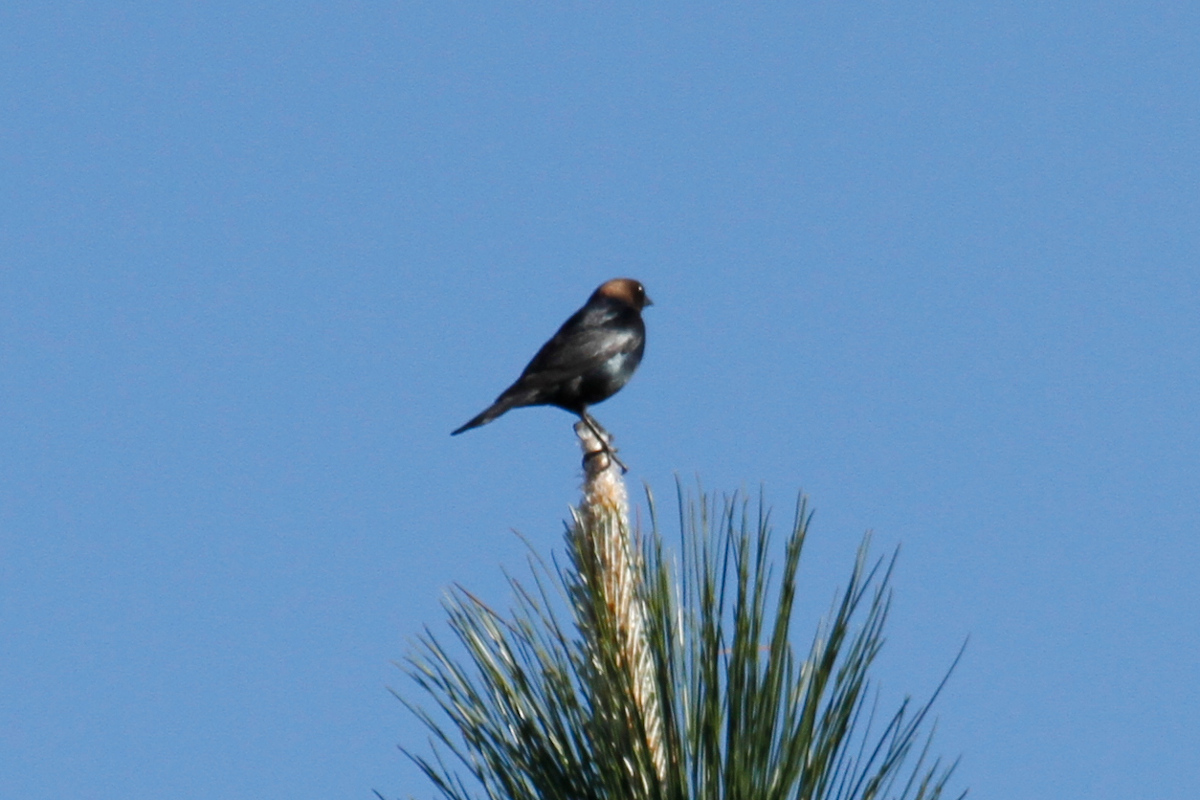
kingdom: Animalia
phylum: Chordata
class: Aves
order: Passeriformes
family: Icteridae
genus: Molothrus
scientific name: Molothrus ater
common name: Brown-headed cowbird
